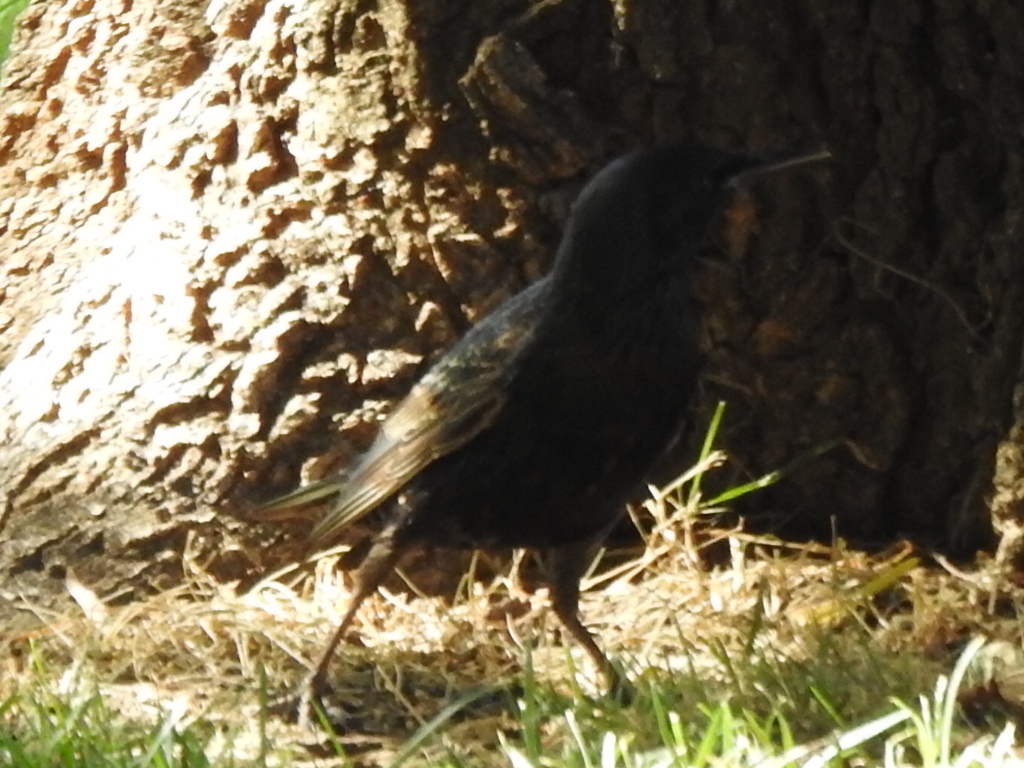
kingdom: Animalia
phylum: Chordata
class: Aves
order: Passeriformes
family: Sturnidae
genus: Sturnus
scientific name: Sturnus vulgaris
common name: Common starling
